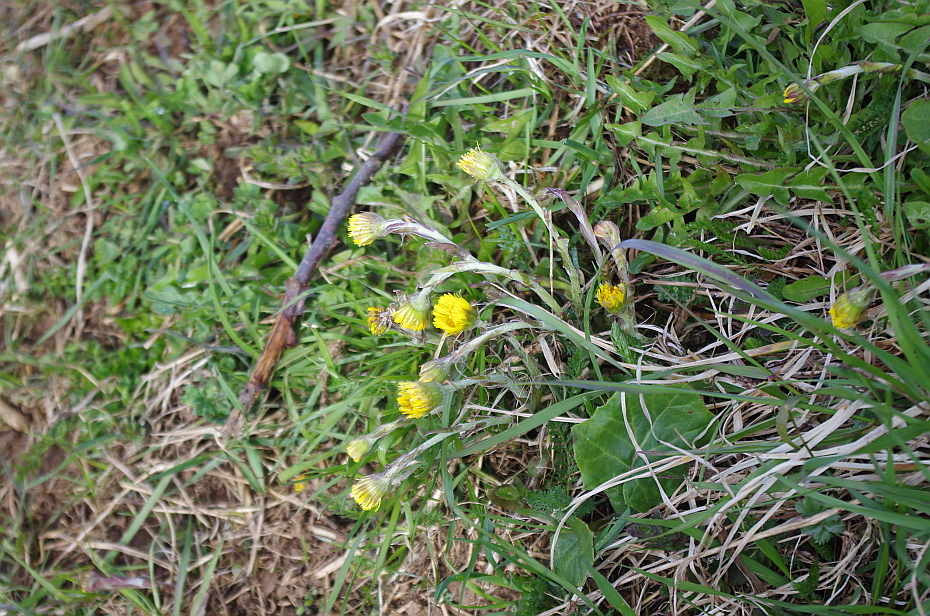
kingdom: Plantae
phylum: Tracheophyta
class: Magnoliopsida
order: Asterales
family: Asteraceae
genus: Tussilago
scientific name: Tussilago farfara
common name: Coltsfoot
